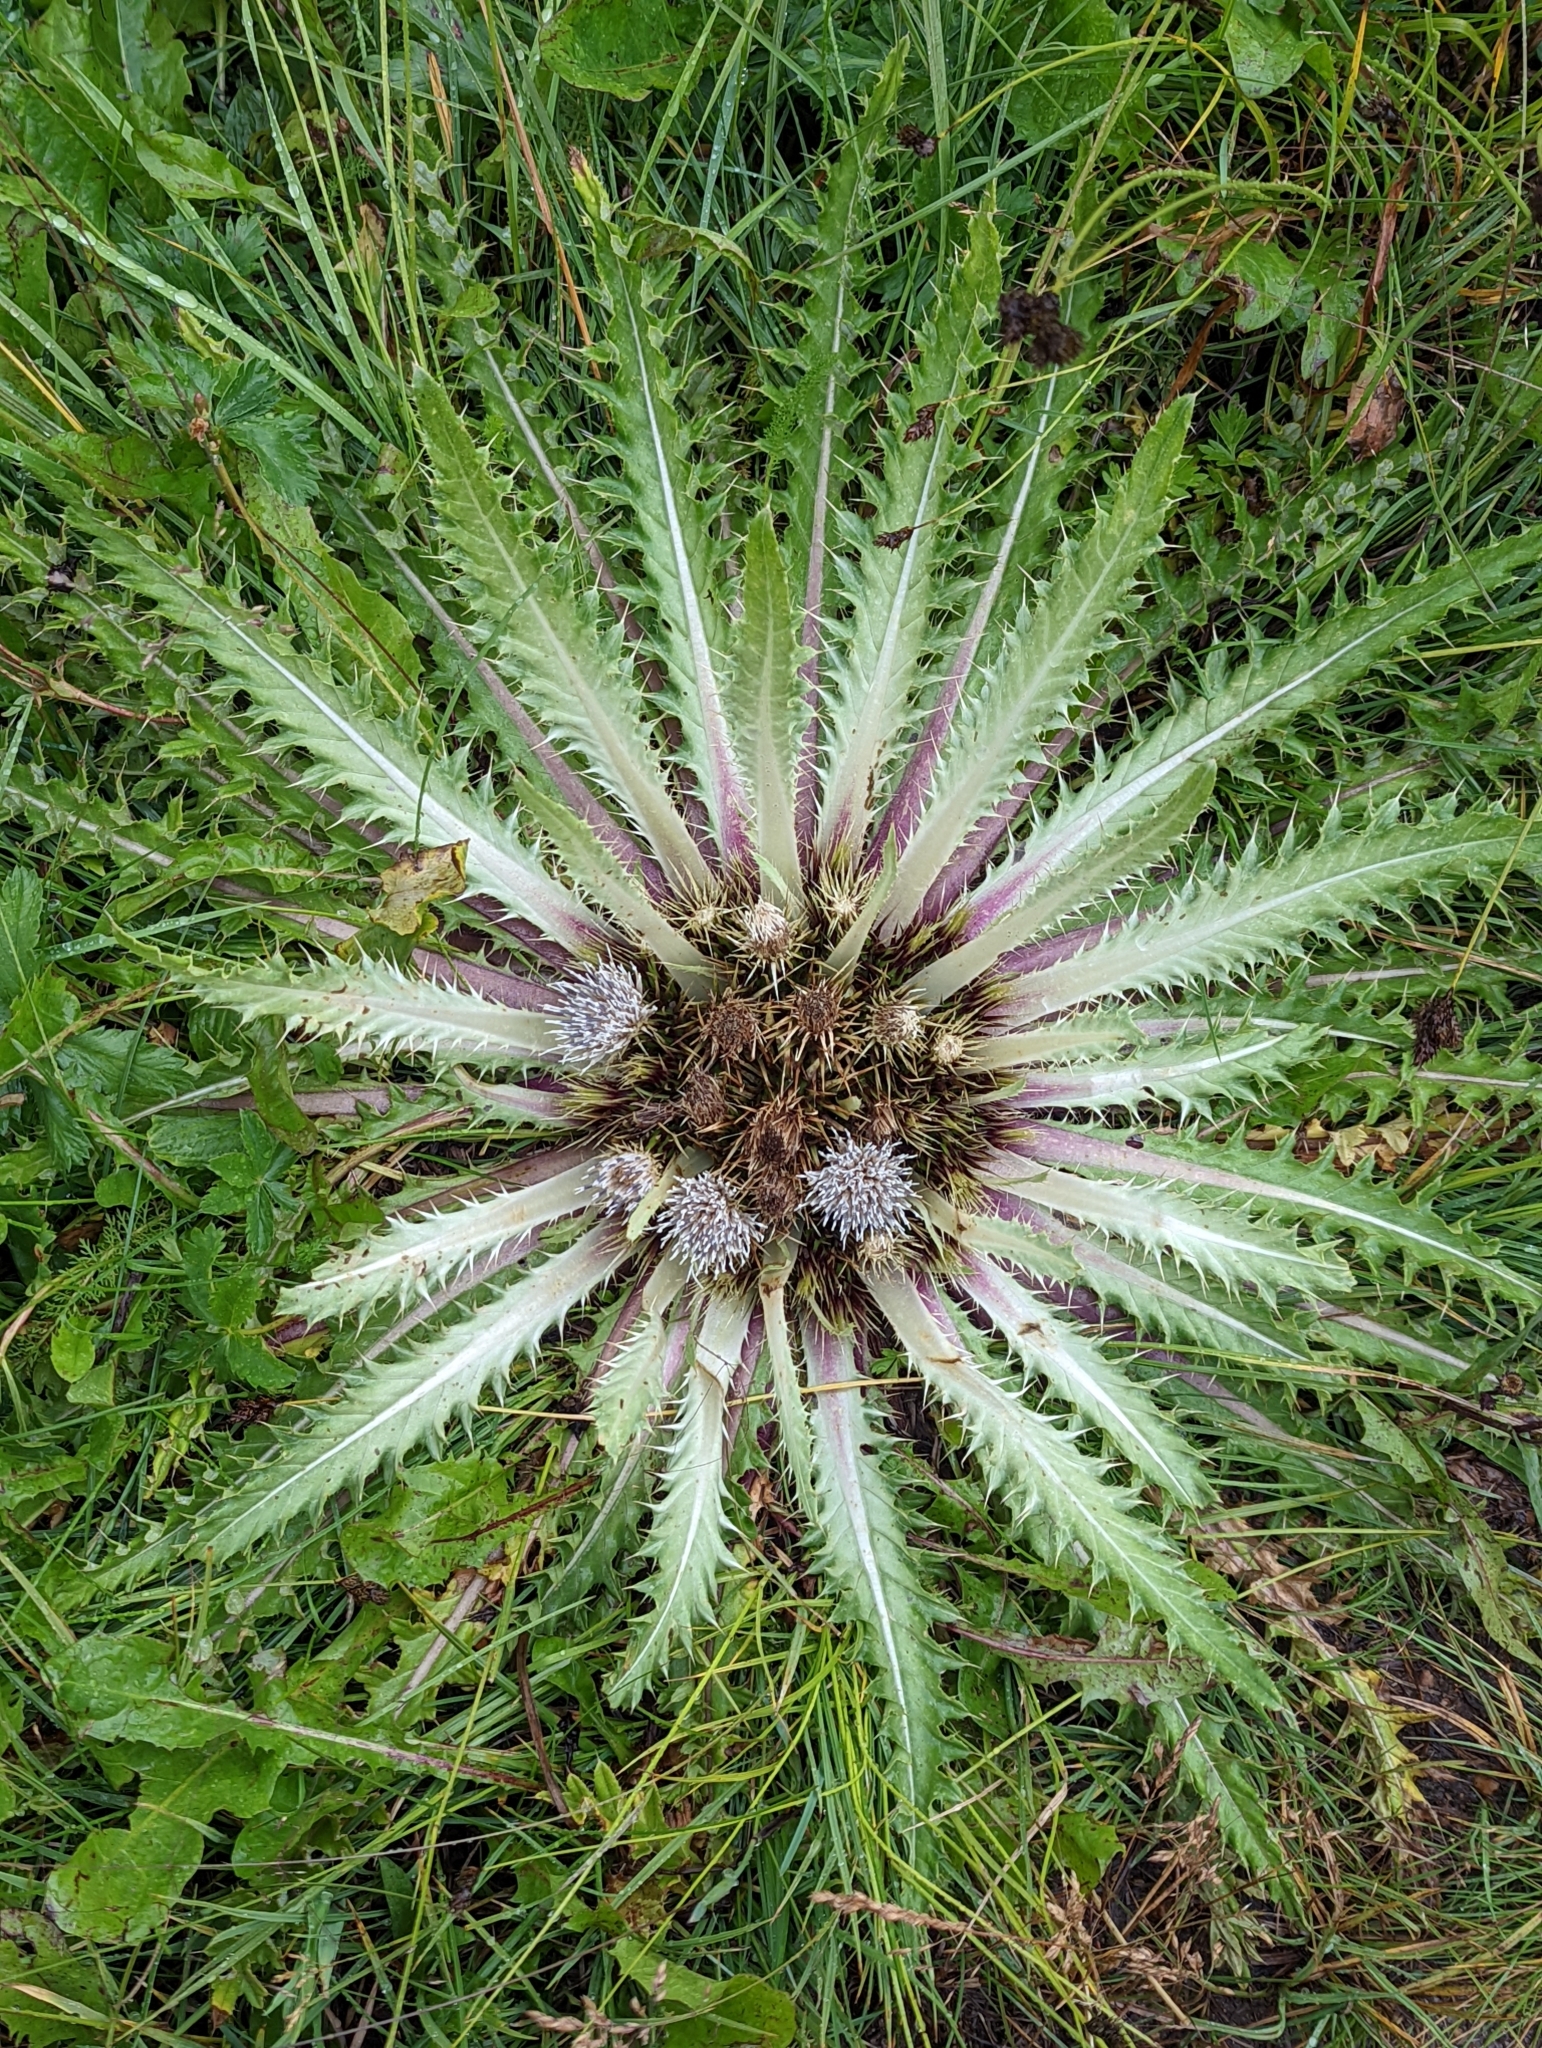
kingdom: Plantae
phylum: Tracheophyta
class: Magnoliopsida
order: Asterales
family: Asteraceae
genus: Cirsium
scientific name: Cirsium scariosum
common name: Meadow thistle
